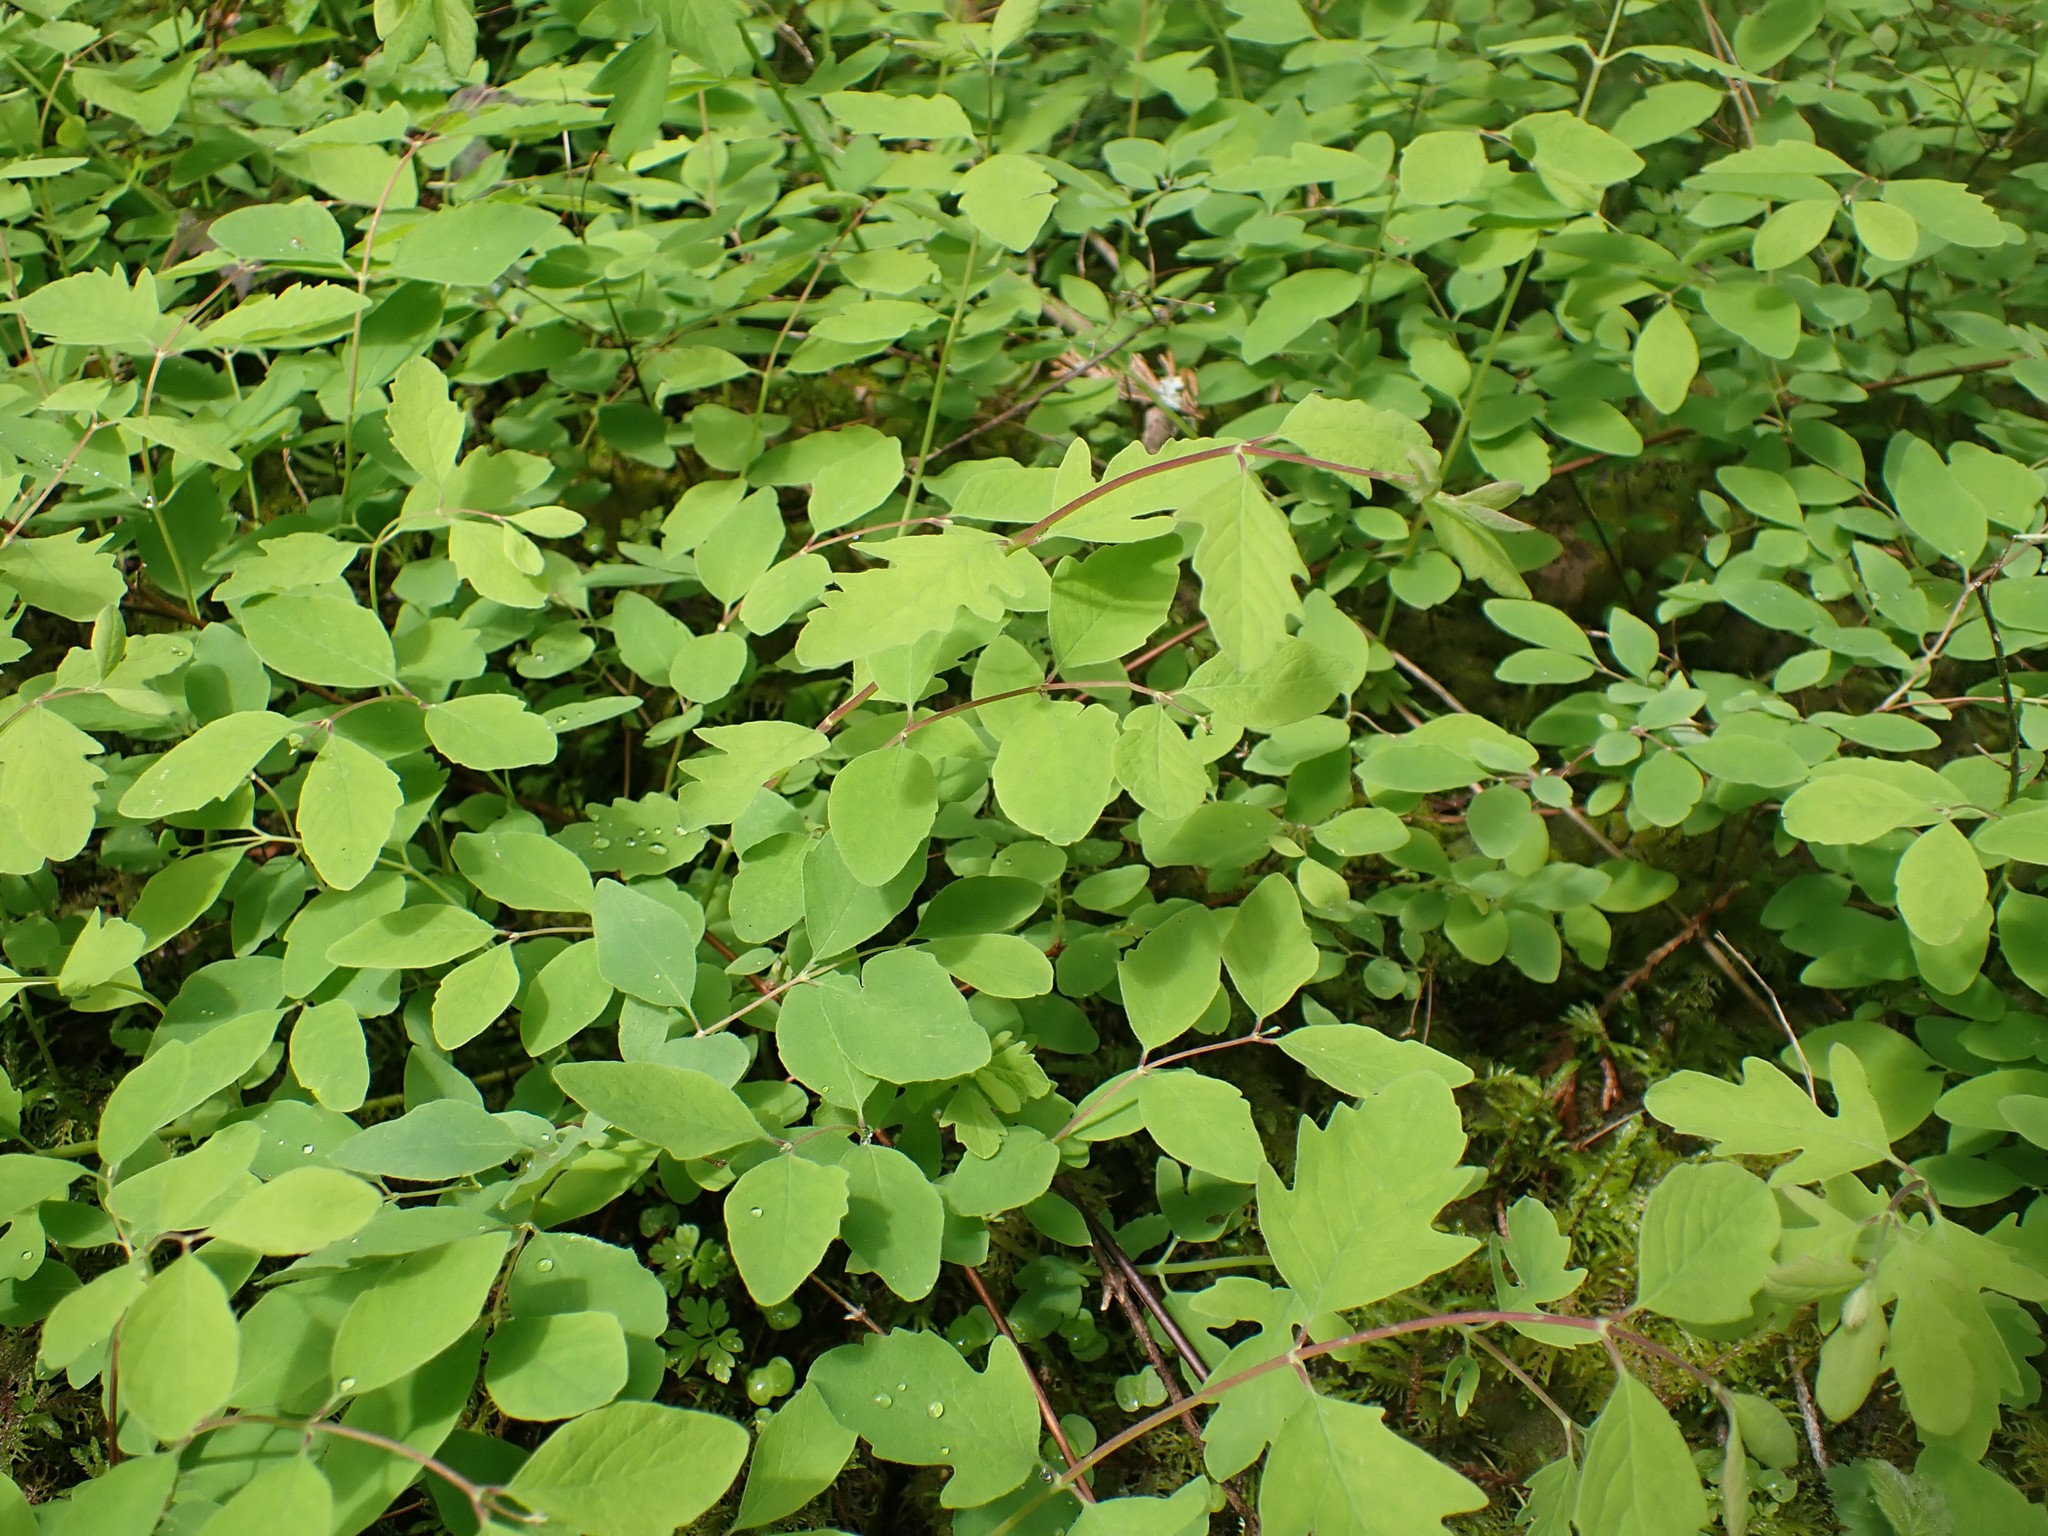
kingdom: Plantae
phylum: Tracheophyta
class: Magnoliopsida
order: Dipsacales
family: Caprifoliaceae
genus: Symphoricarpos
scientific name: Symphoricarpos mollis
